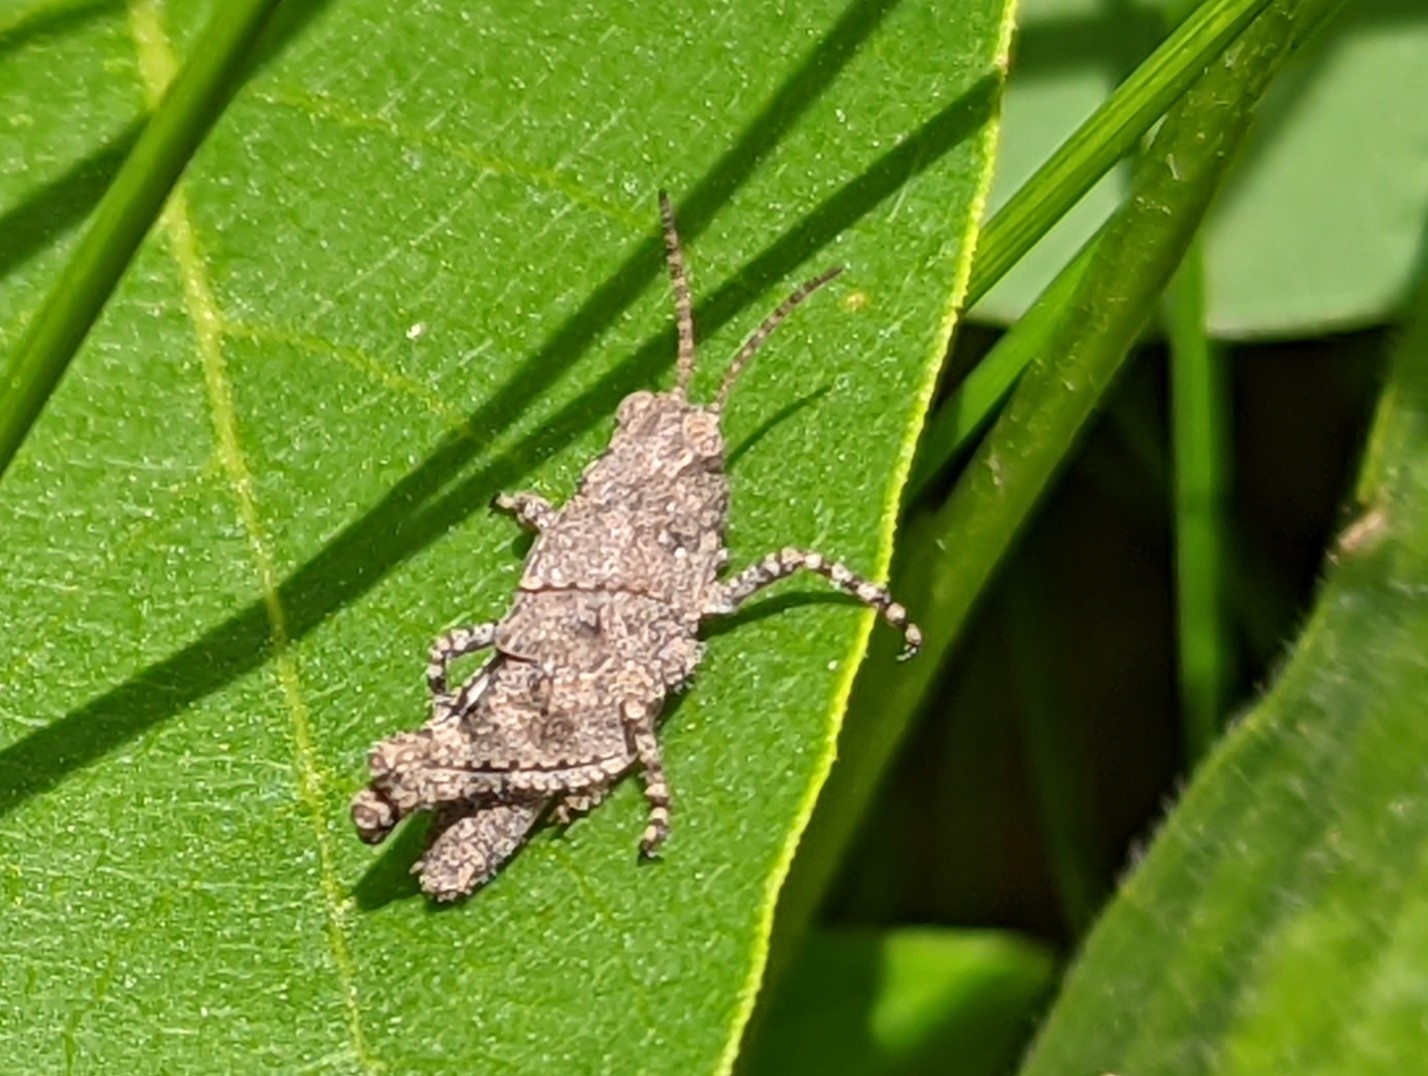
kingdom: Animalia
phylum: Arthropoda
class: Insecta
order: Orthoptera
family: Acrididae
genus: Dissosteira
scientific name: Dissosteira carolina
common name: Carolina grasshopper
